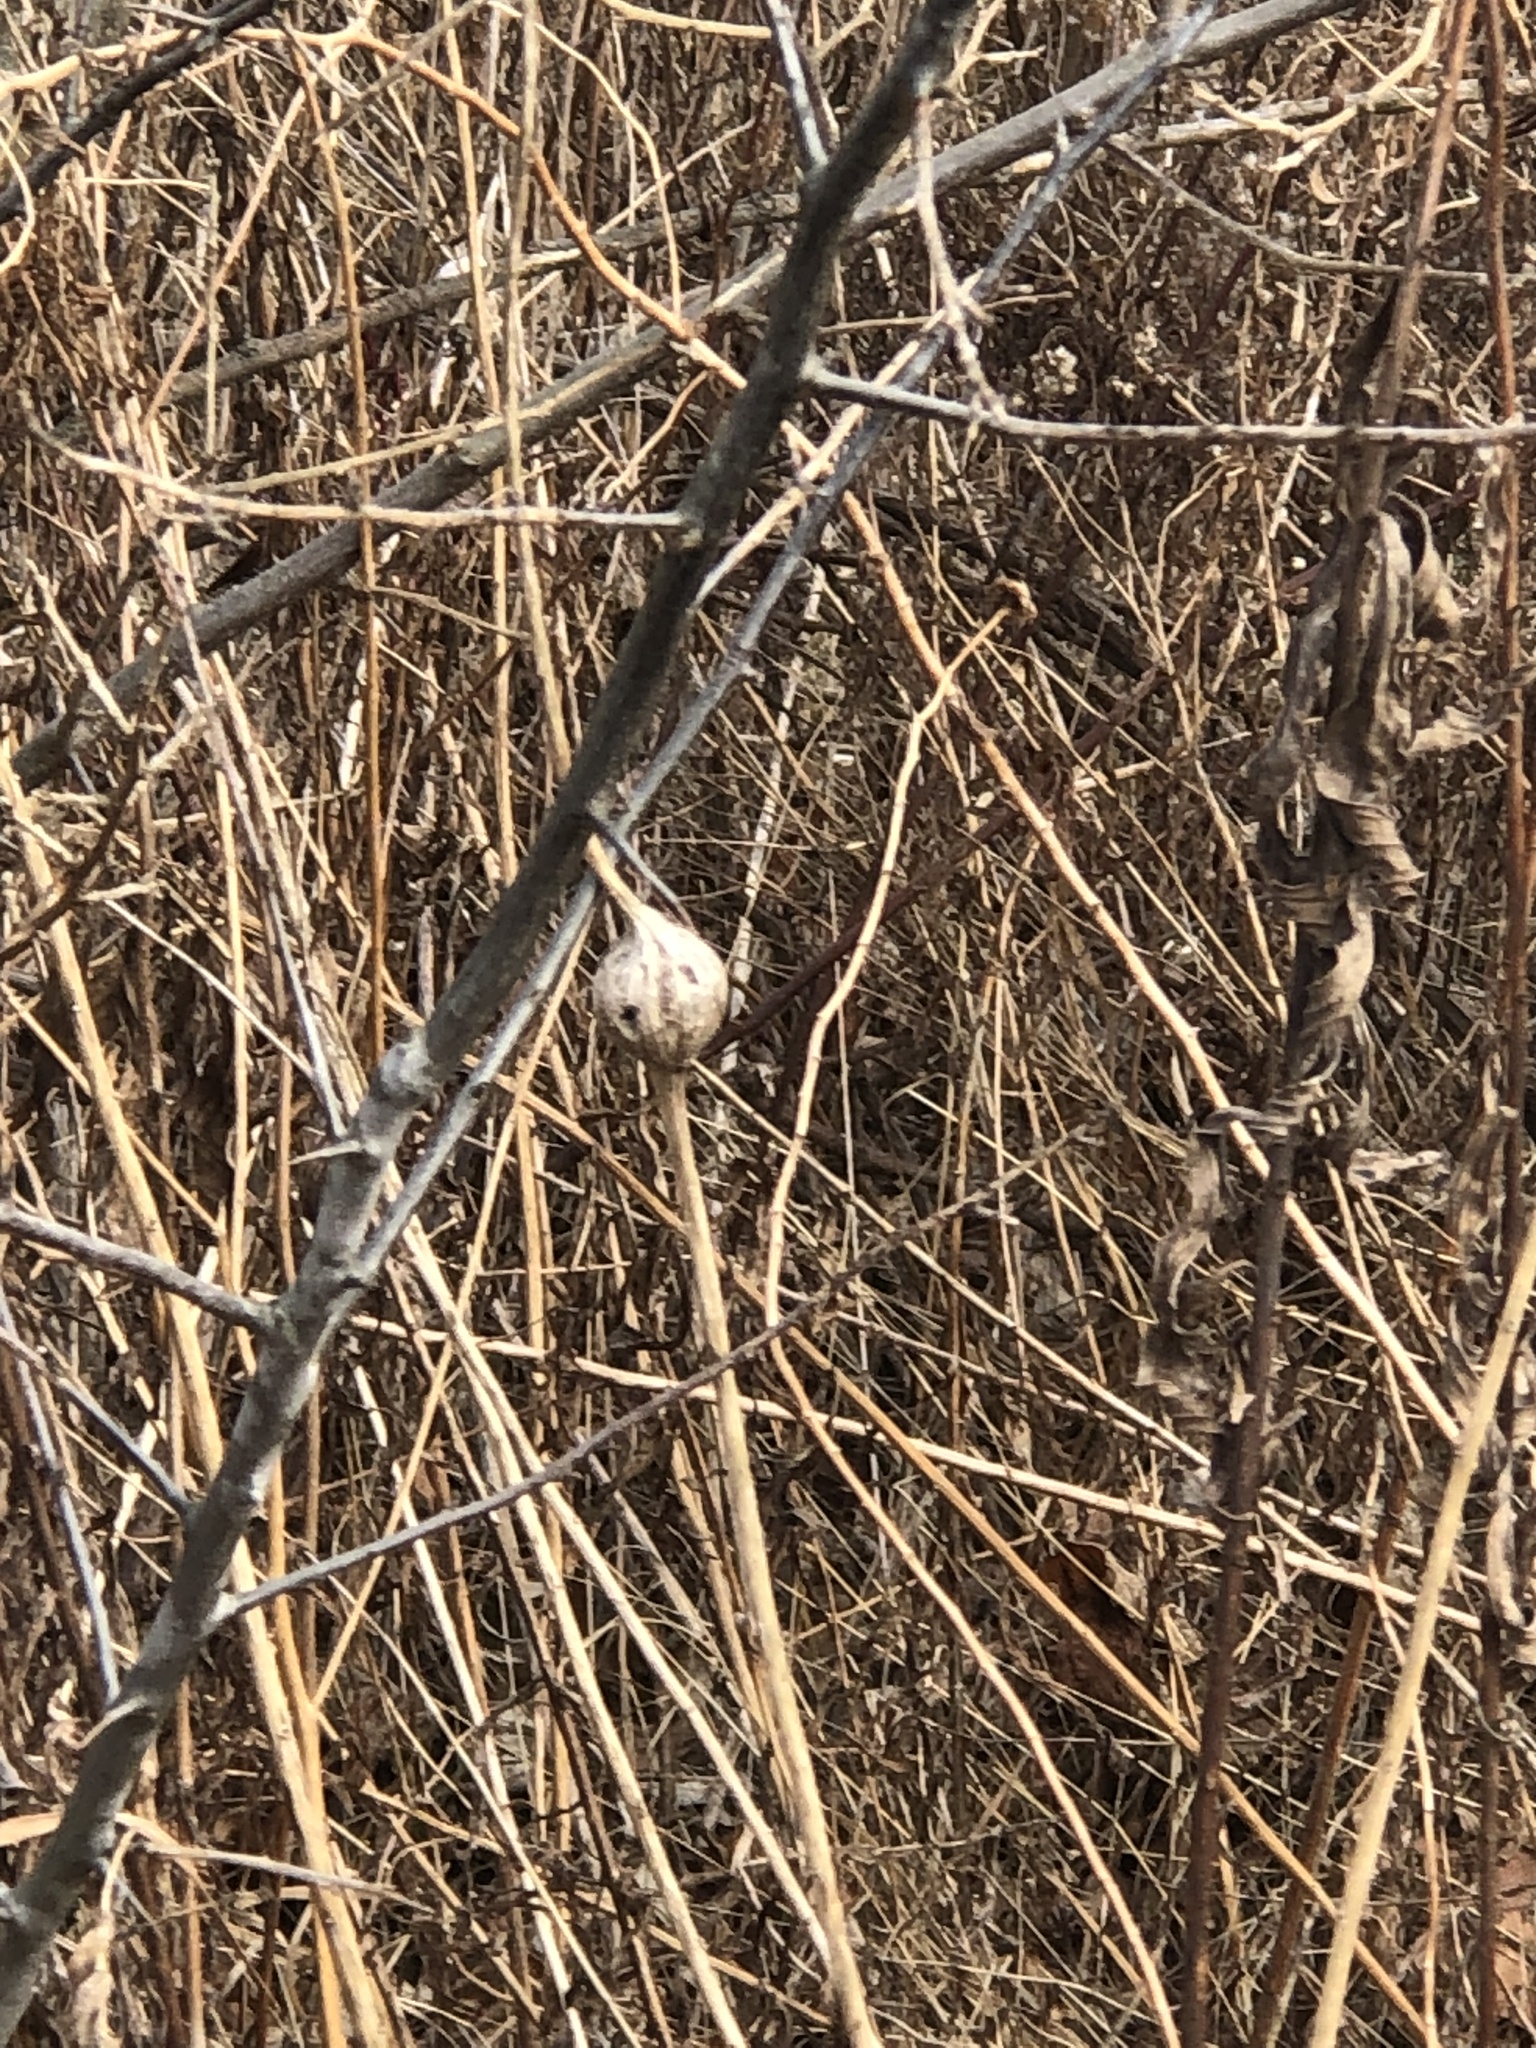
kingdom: Animalia
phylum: Arthropoda
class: Insecta
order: Diptera
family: Tephritidae
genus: Eurosta
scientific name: Eurosta solidaginis
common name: Goldenrod gall fly
